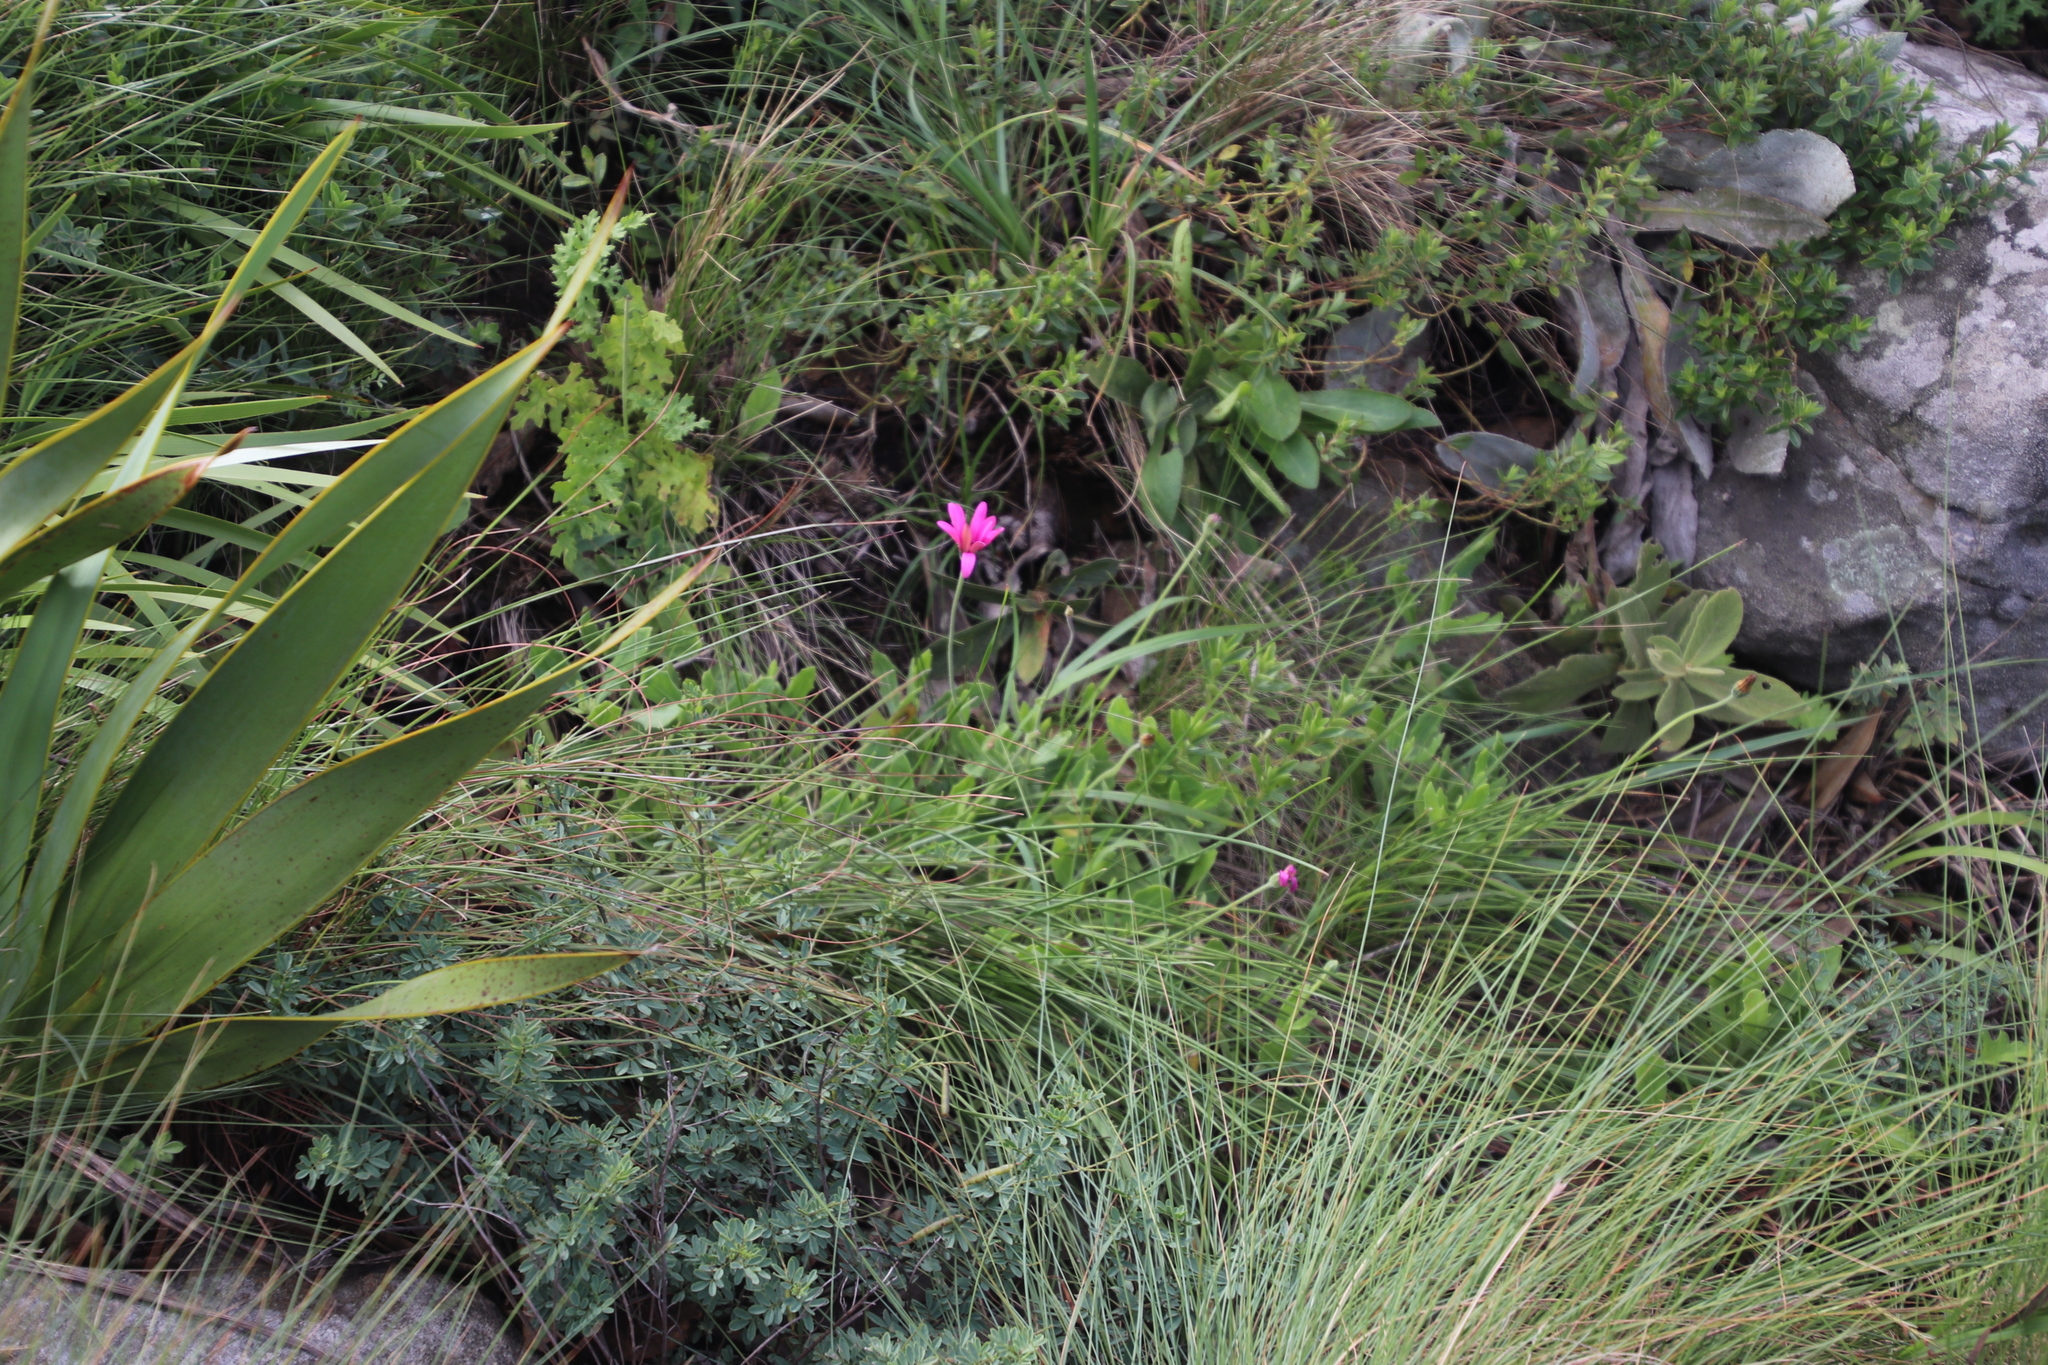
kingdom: Plantae
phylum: Tracheophyta
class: Magnoliopsida
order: Asterales
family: Asteraceae
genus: Dimorphotheca
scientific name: Dimorphotheca jucunda
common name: Osteospermum
